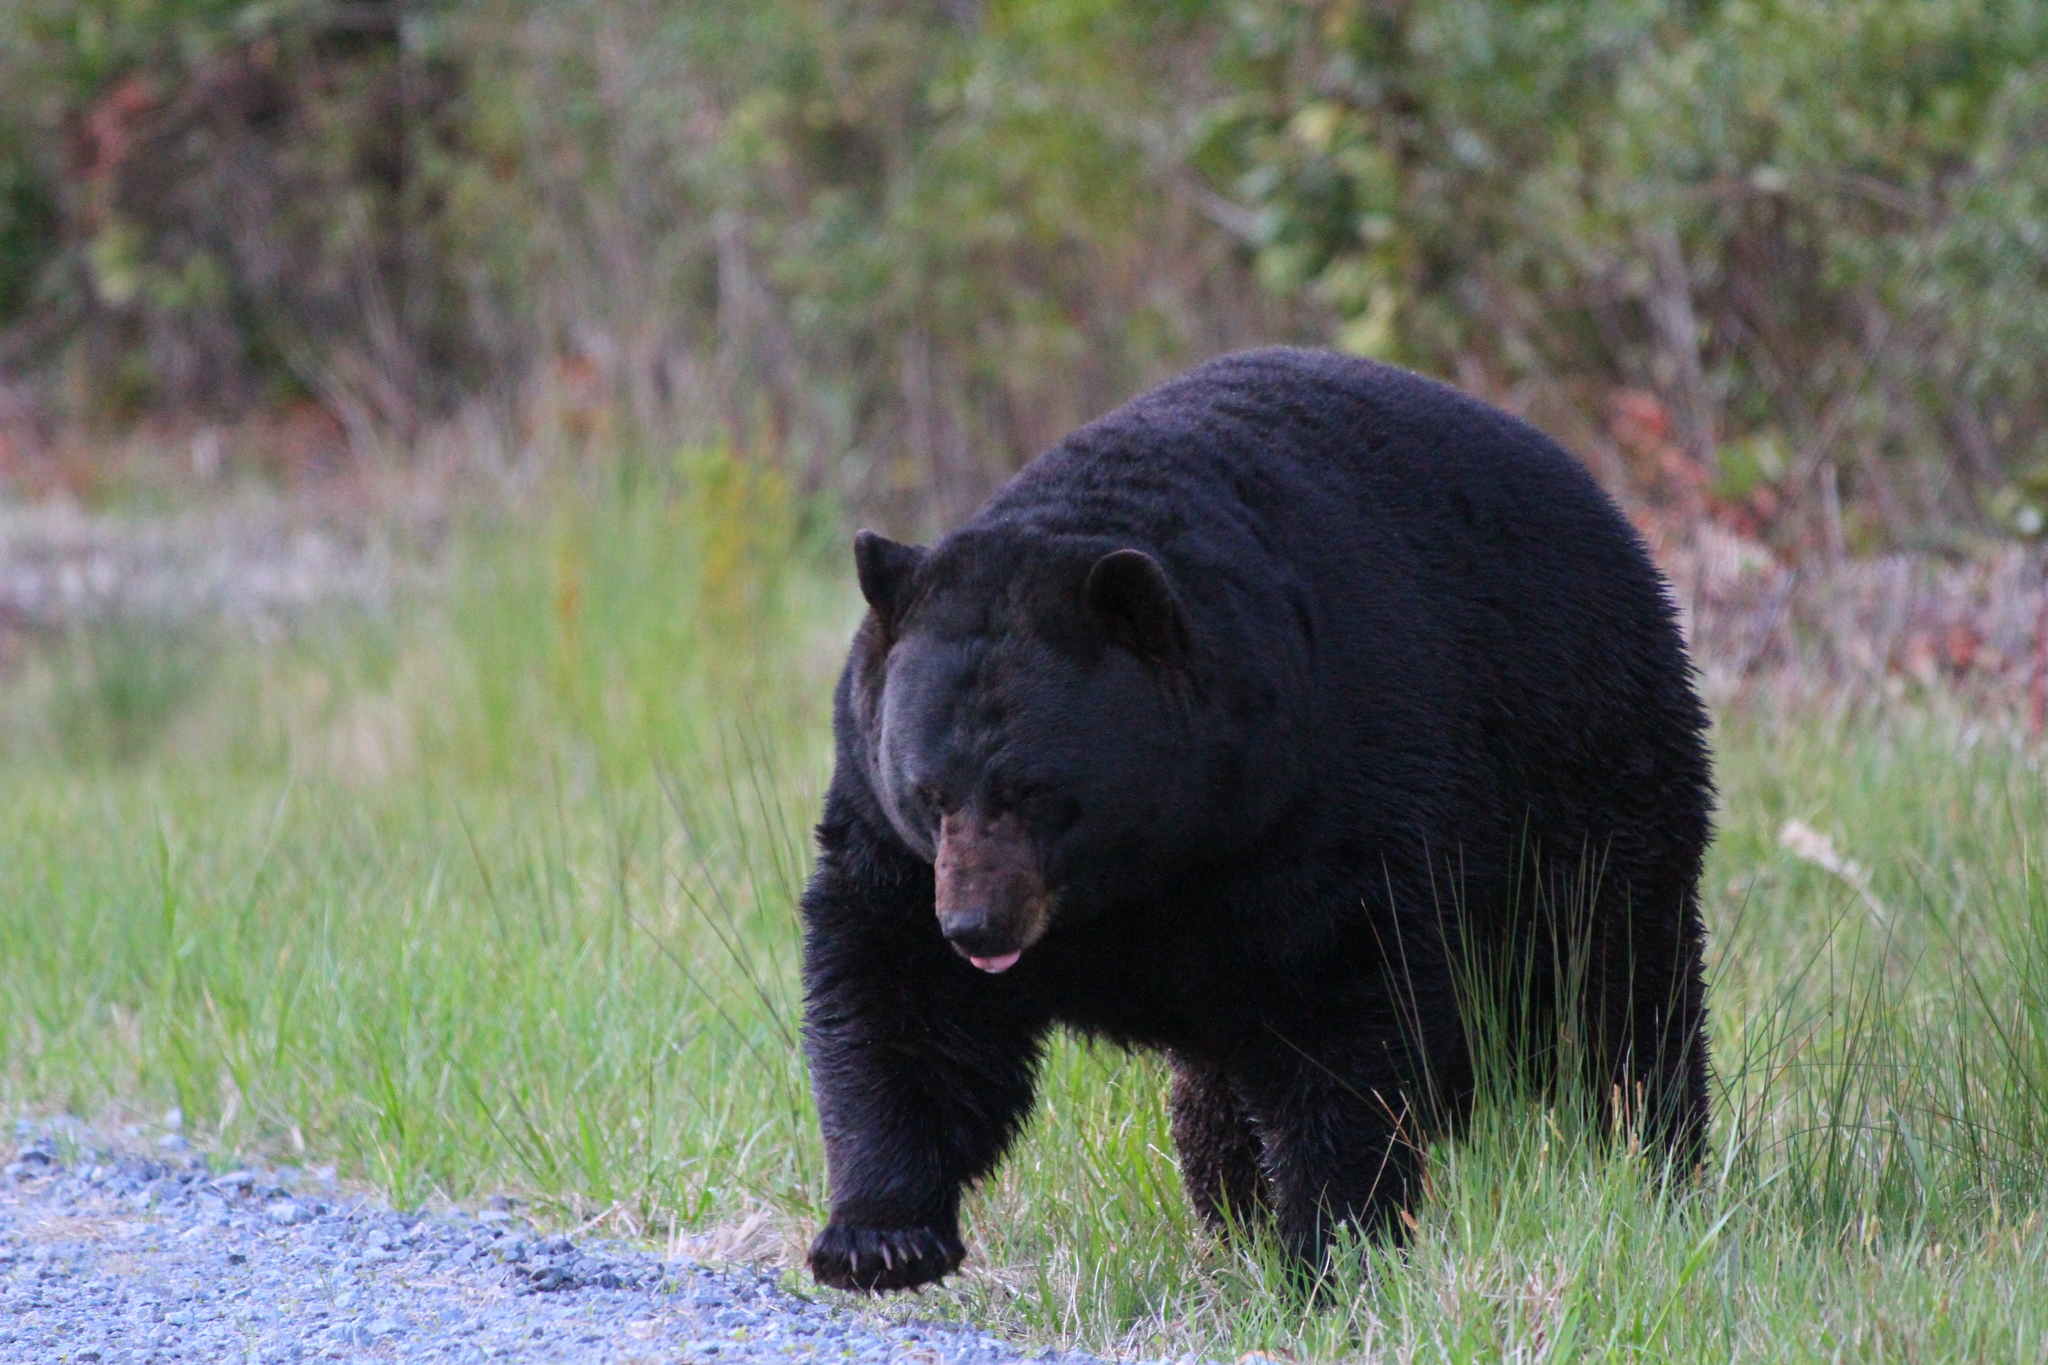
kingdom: Animalia
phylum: Chordata
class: Mammalia
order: Carnivora
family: Ursidae
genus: Ursus
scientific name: Ursus americanus
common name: American black bear
